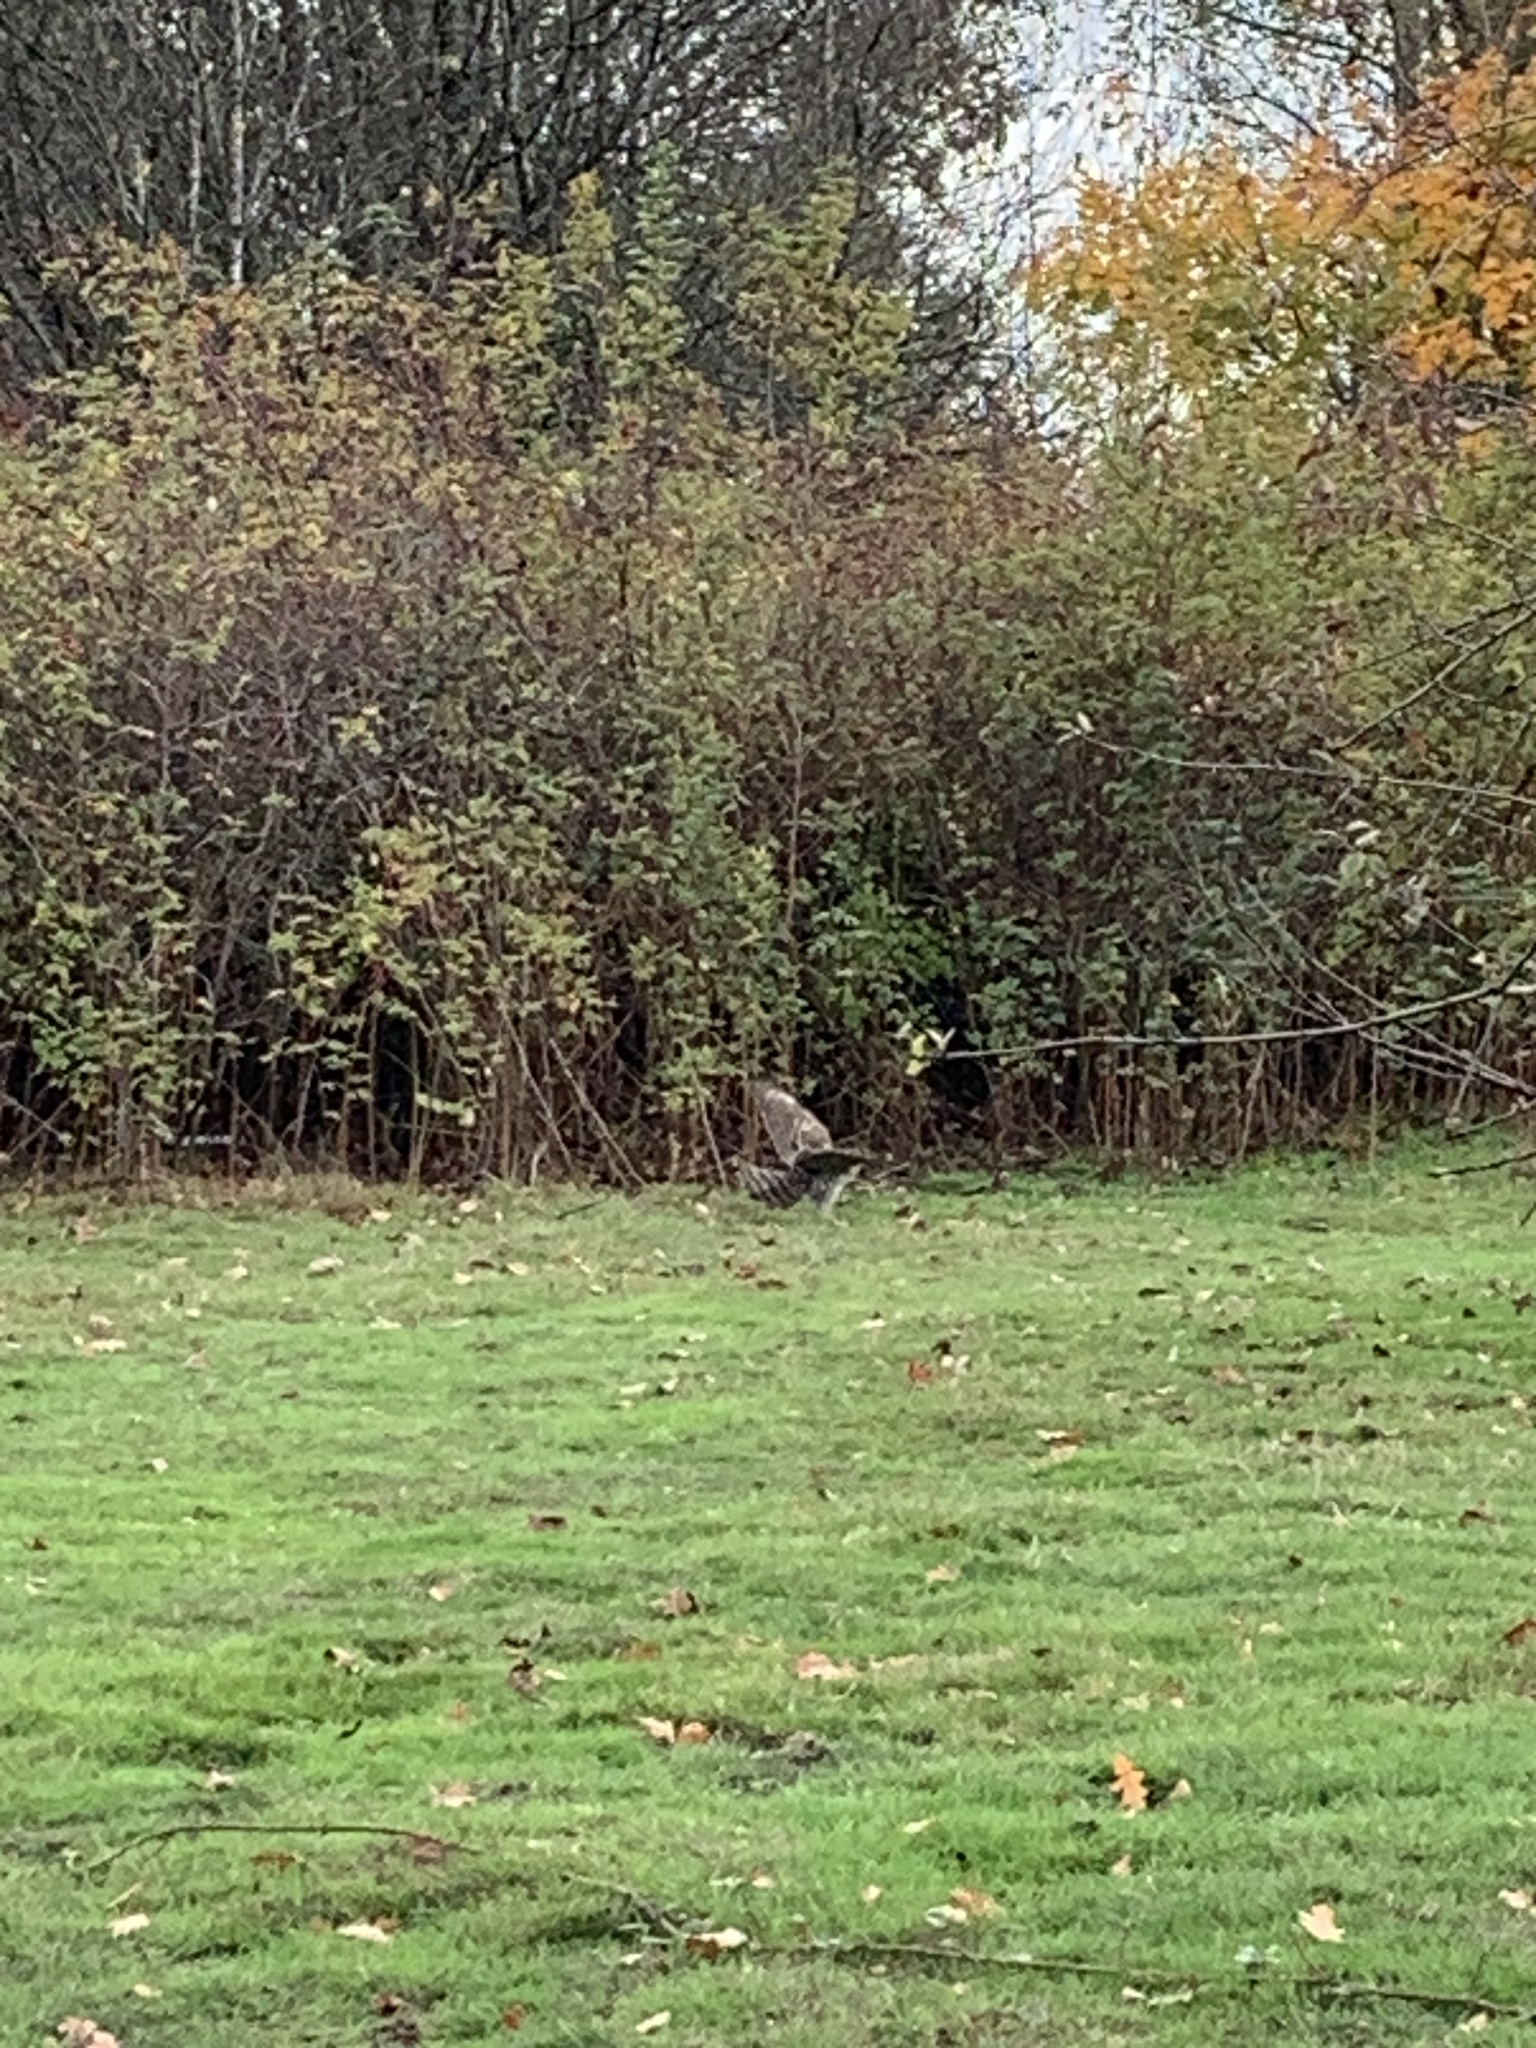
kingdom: Animalia
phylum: Chordata
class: Aves
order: Accipitriformes
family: Accipitridae
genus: Accipiter
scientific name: Accipiter cooperii
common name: Cooper's hawk
